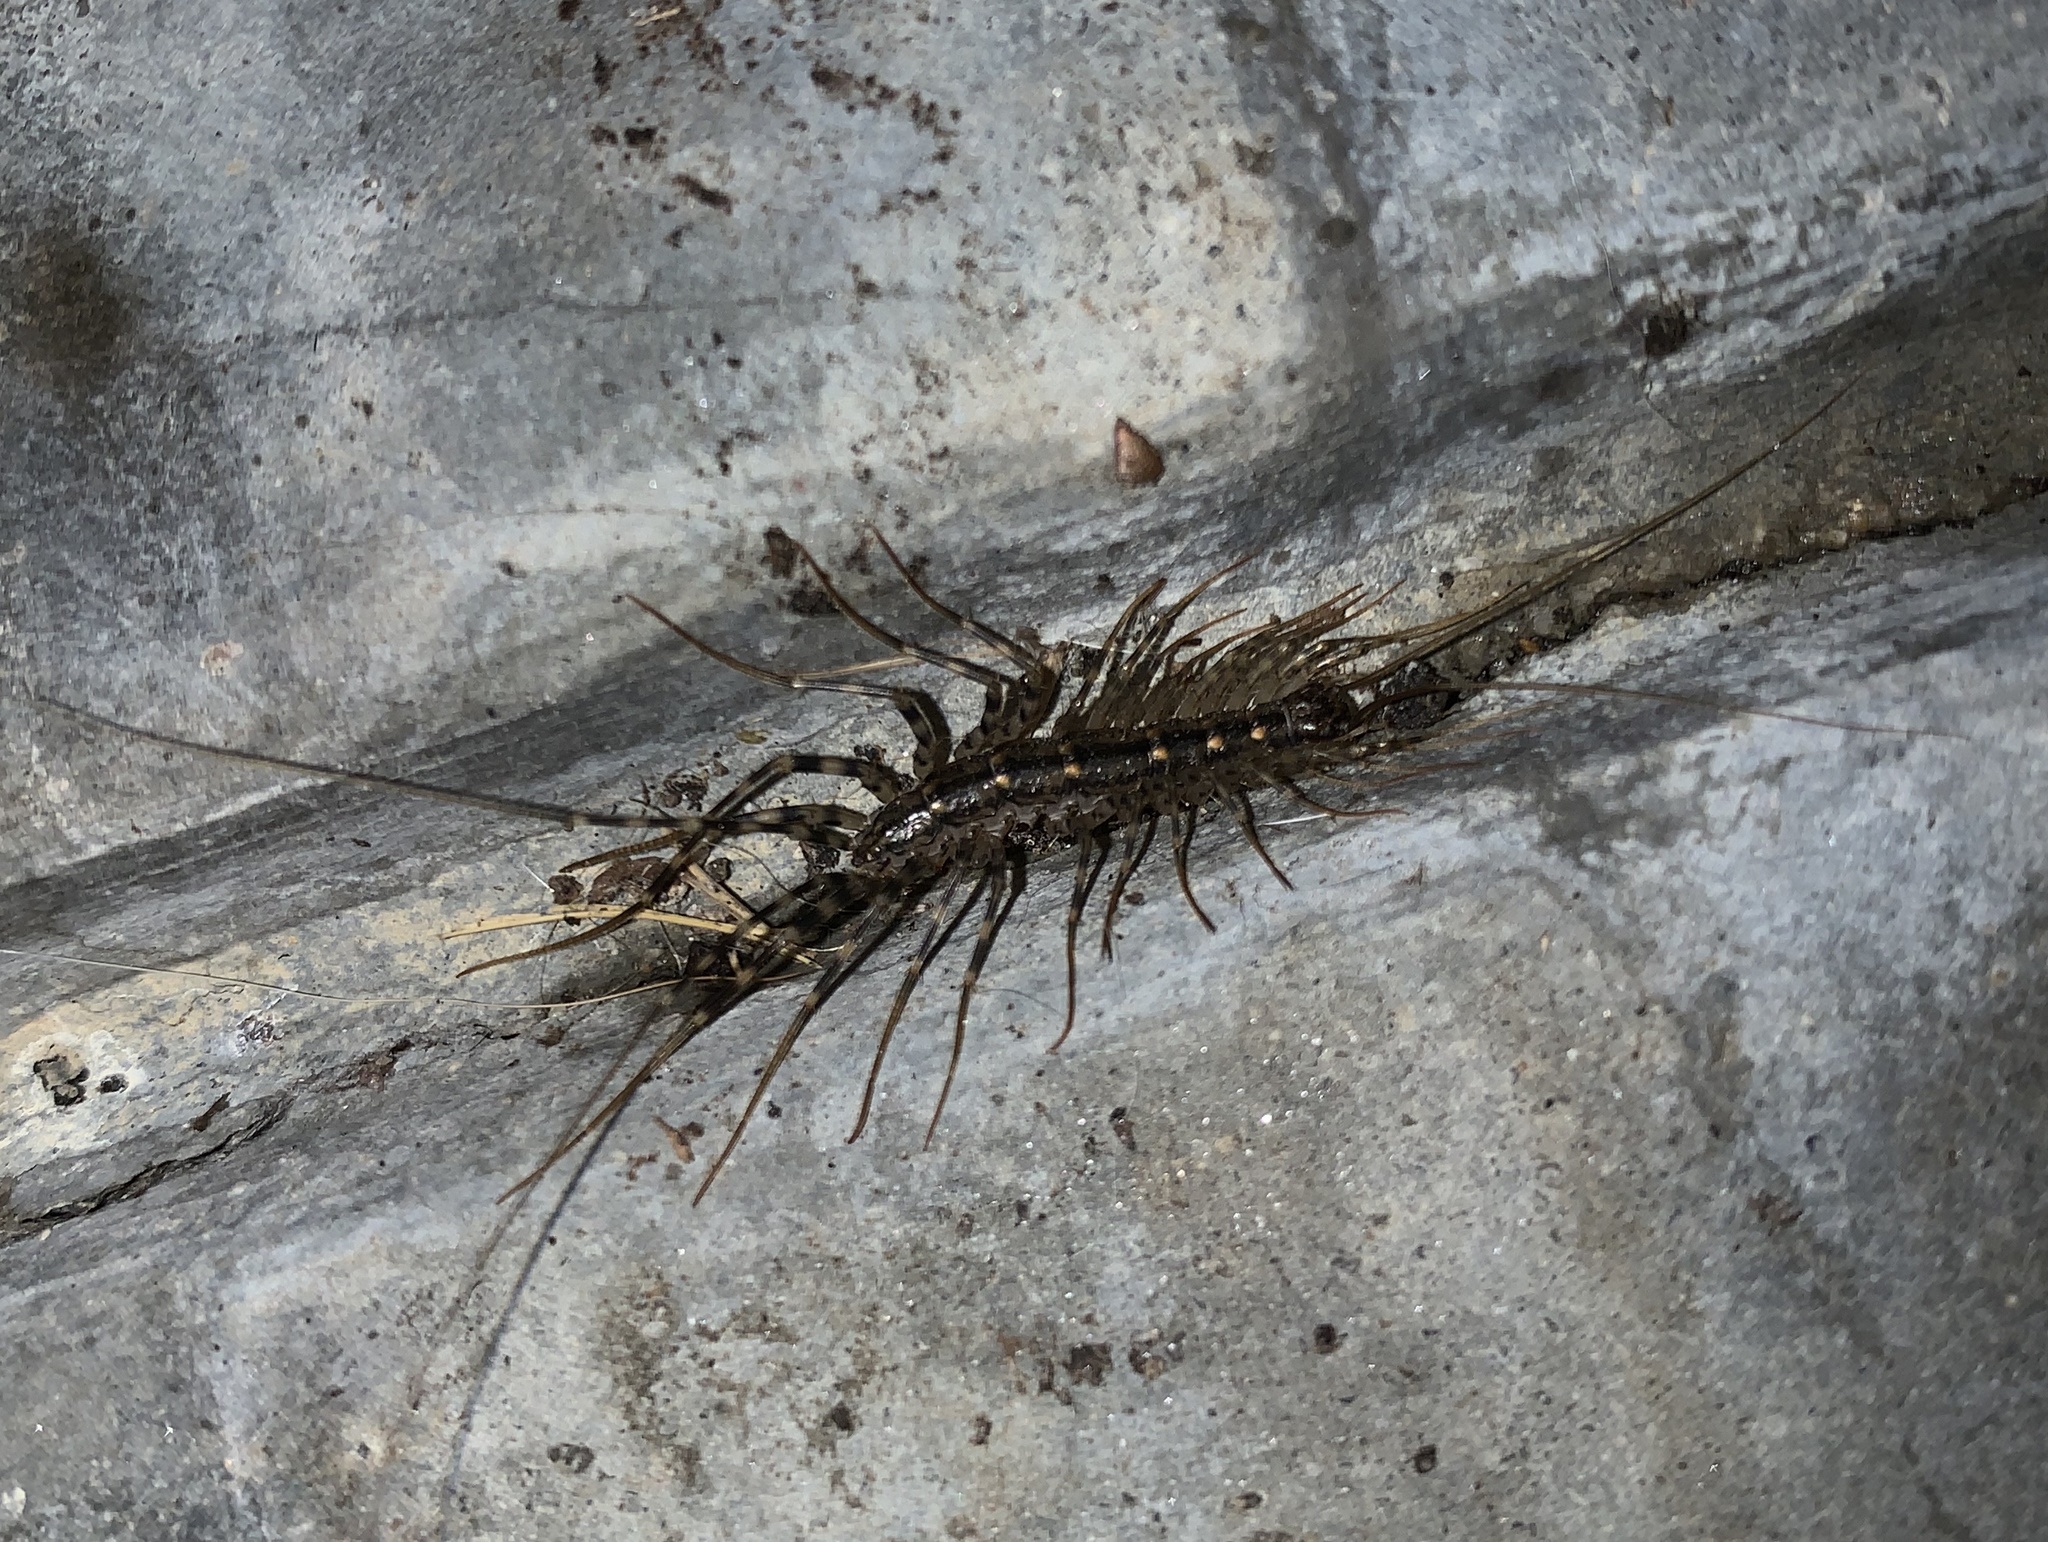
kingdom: Animalia
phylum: Arthropoda
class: Chilopoda
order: Scutigeromorpha
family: Scutigeridae
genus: Scutigera
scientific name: Scutigera coleoptrata
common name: House centipede
